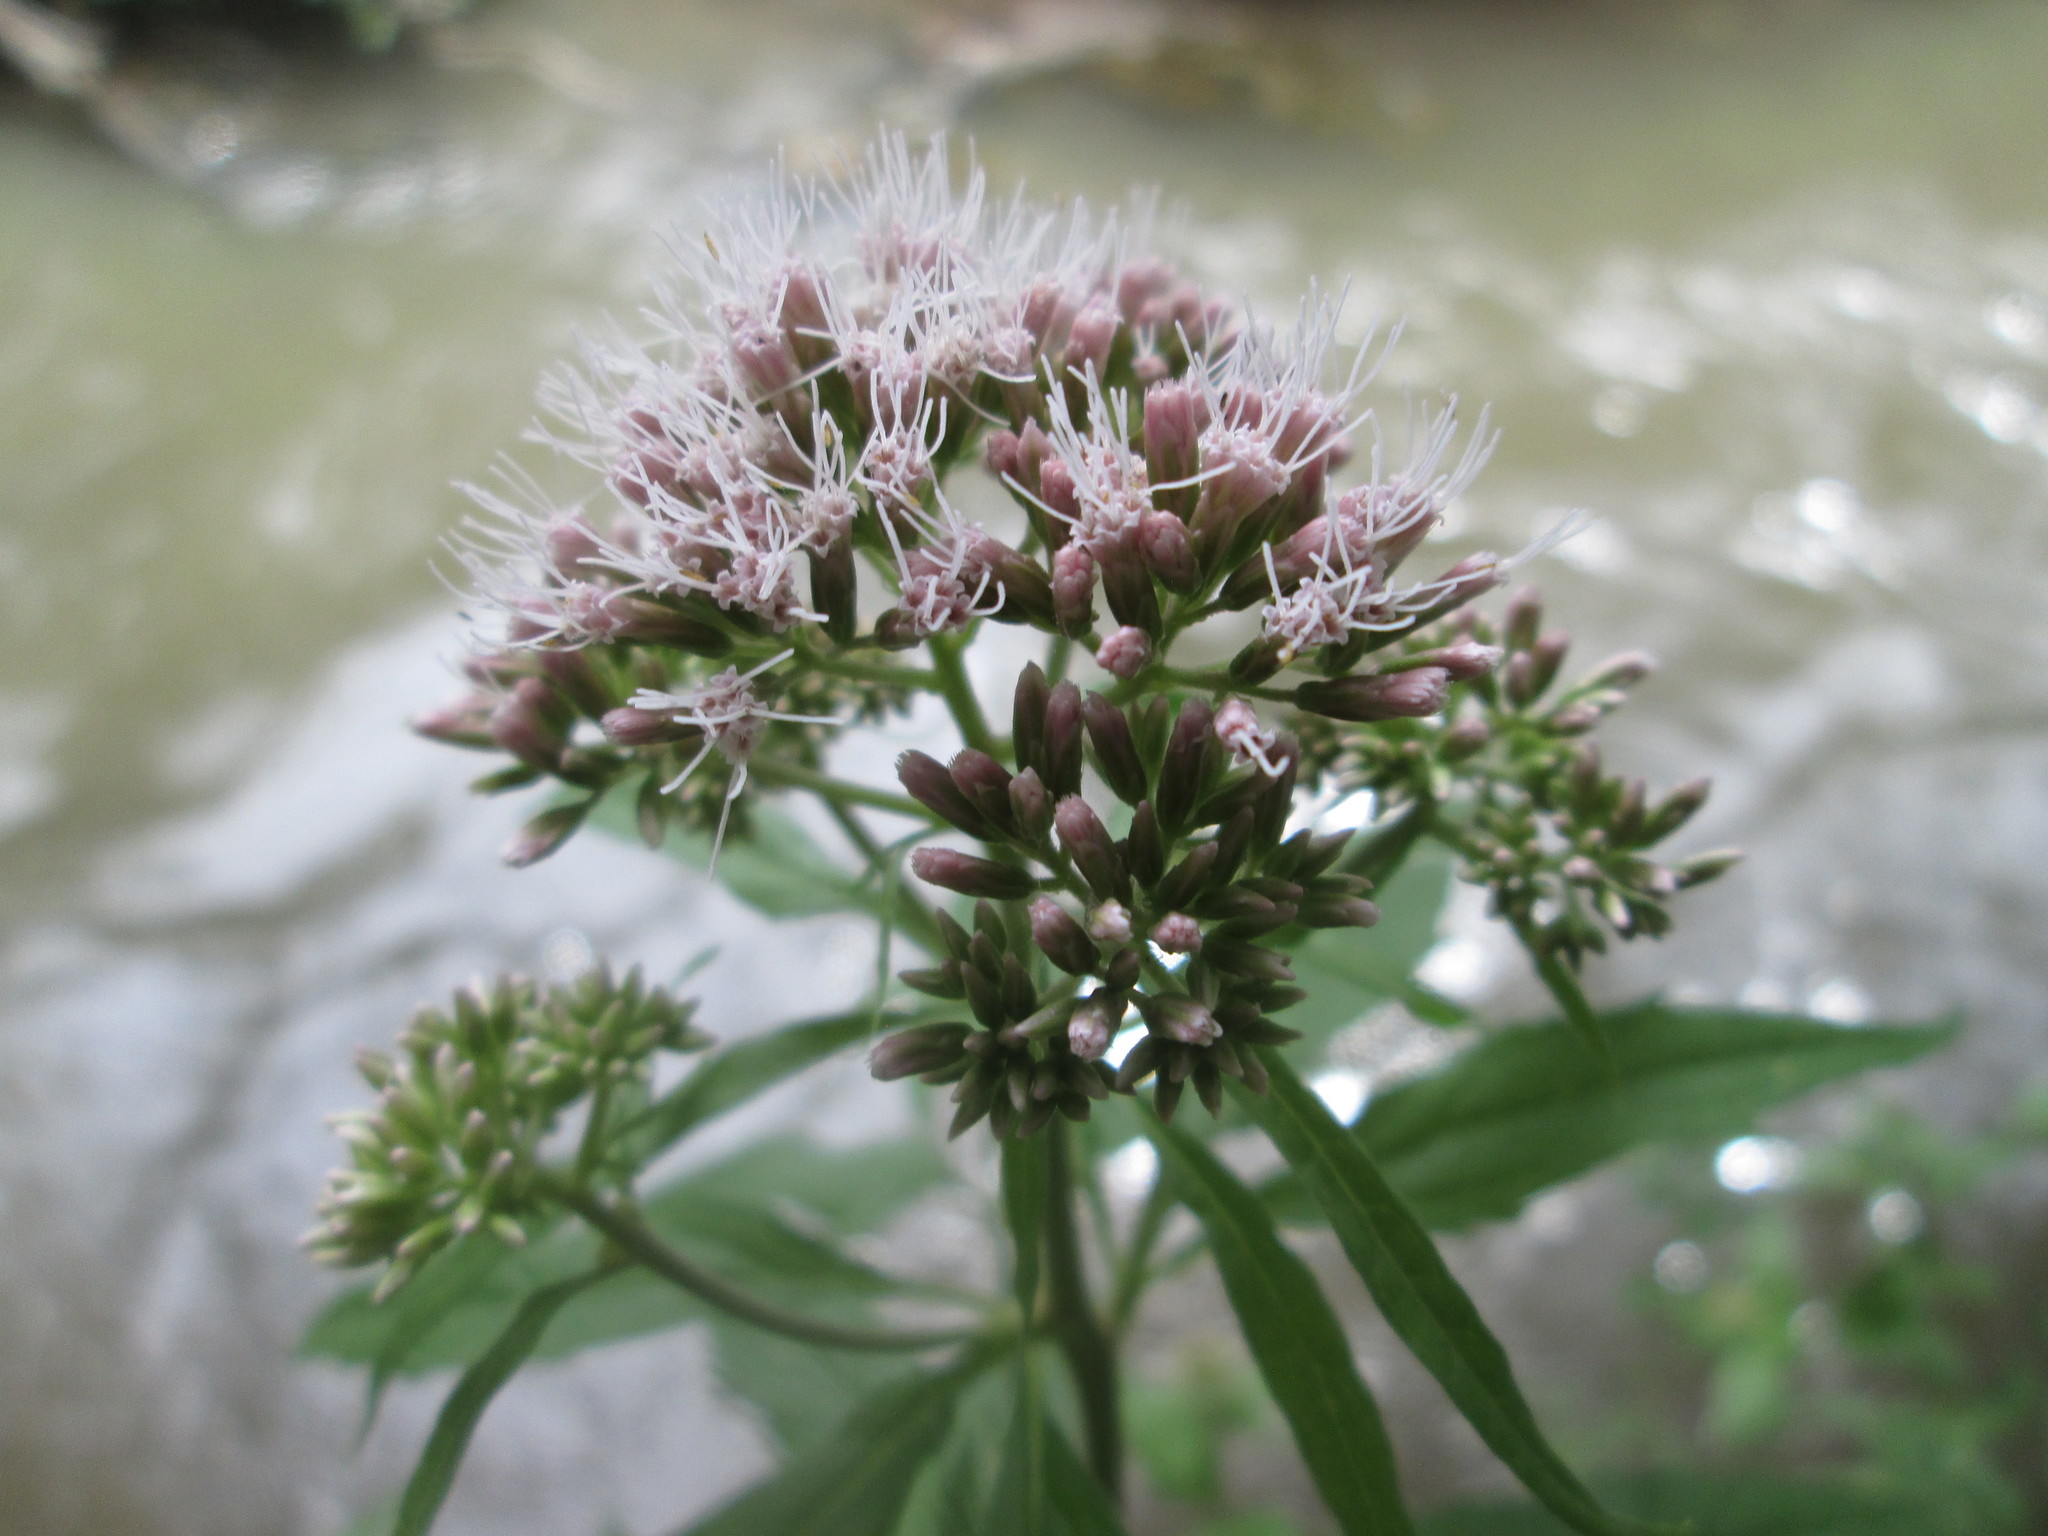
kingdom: Plantae
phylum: Tracheophyta
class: Magnoliopsida
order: Asterales
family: Asteraceae
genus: Eupatorium
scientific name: Eupatorium cannabinum
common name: Hemp-agrimony
